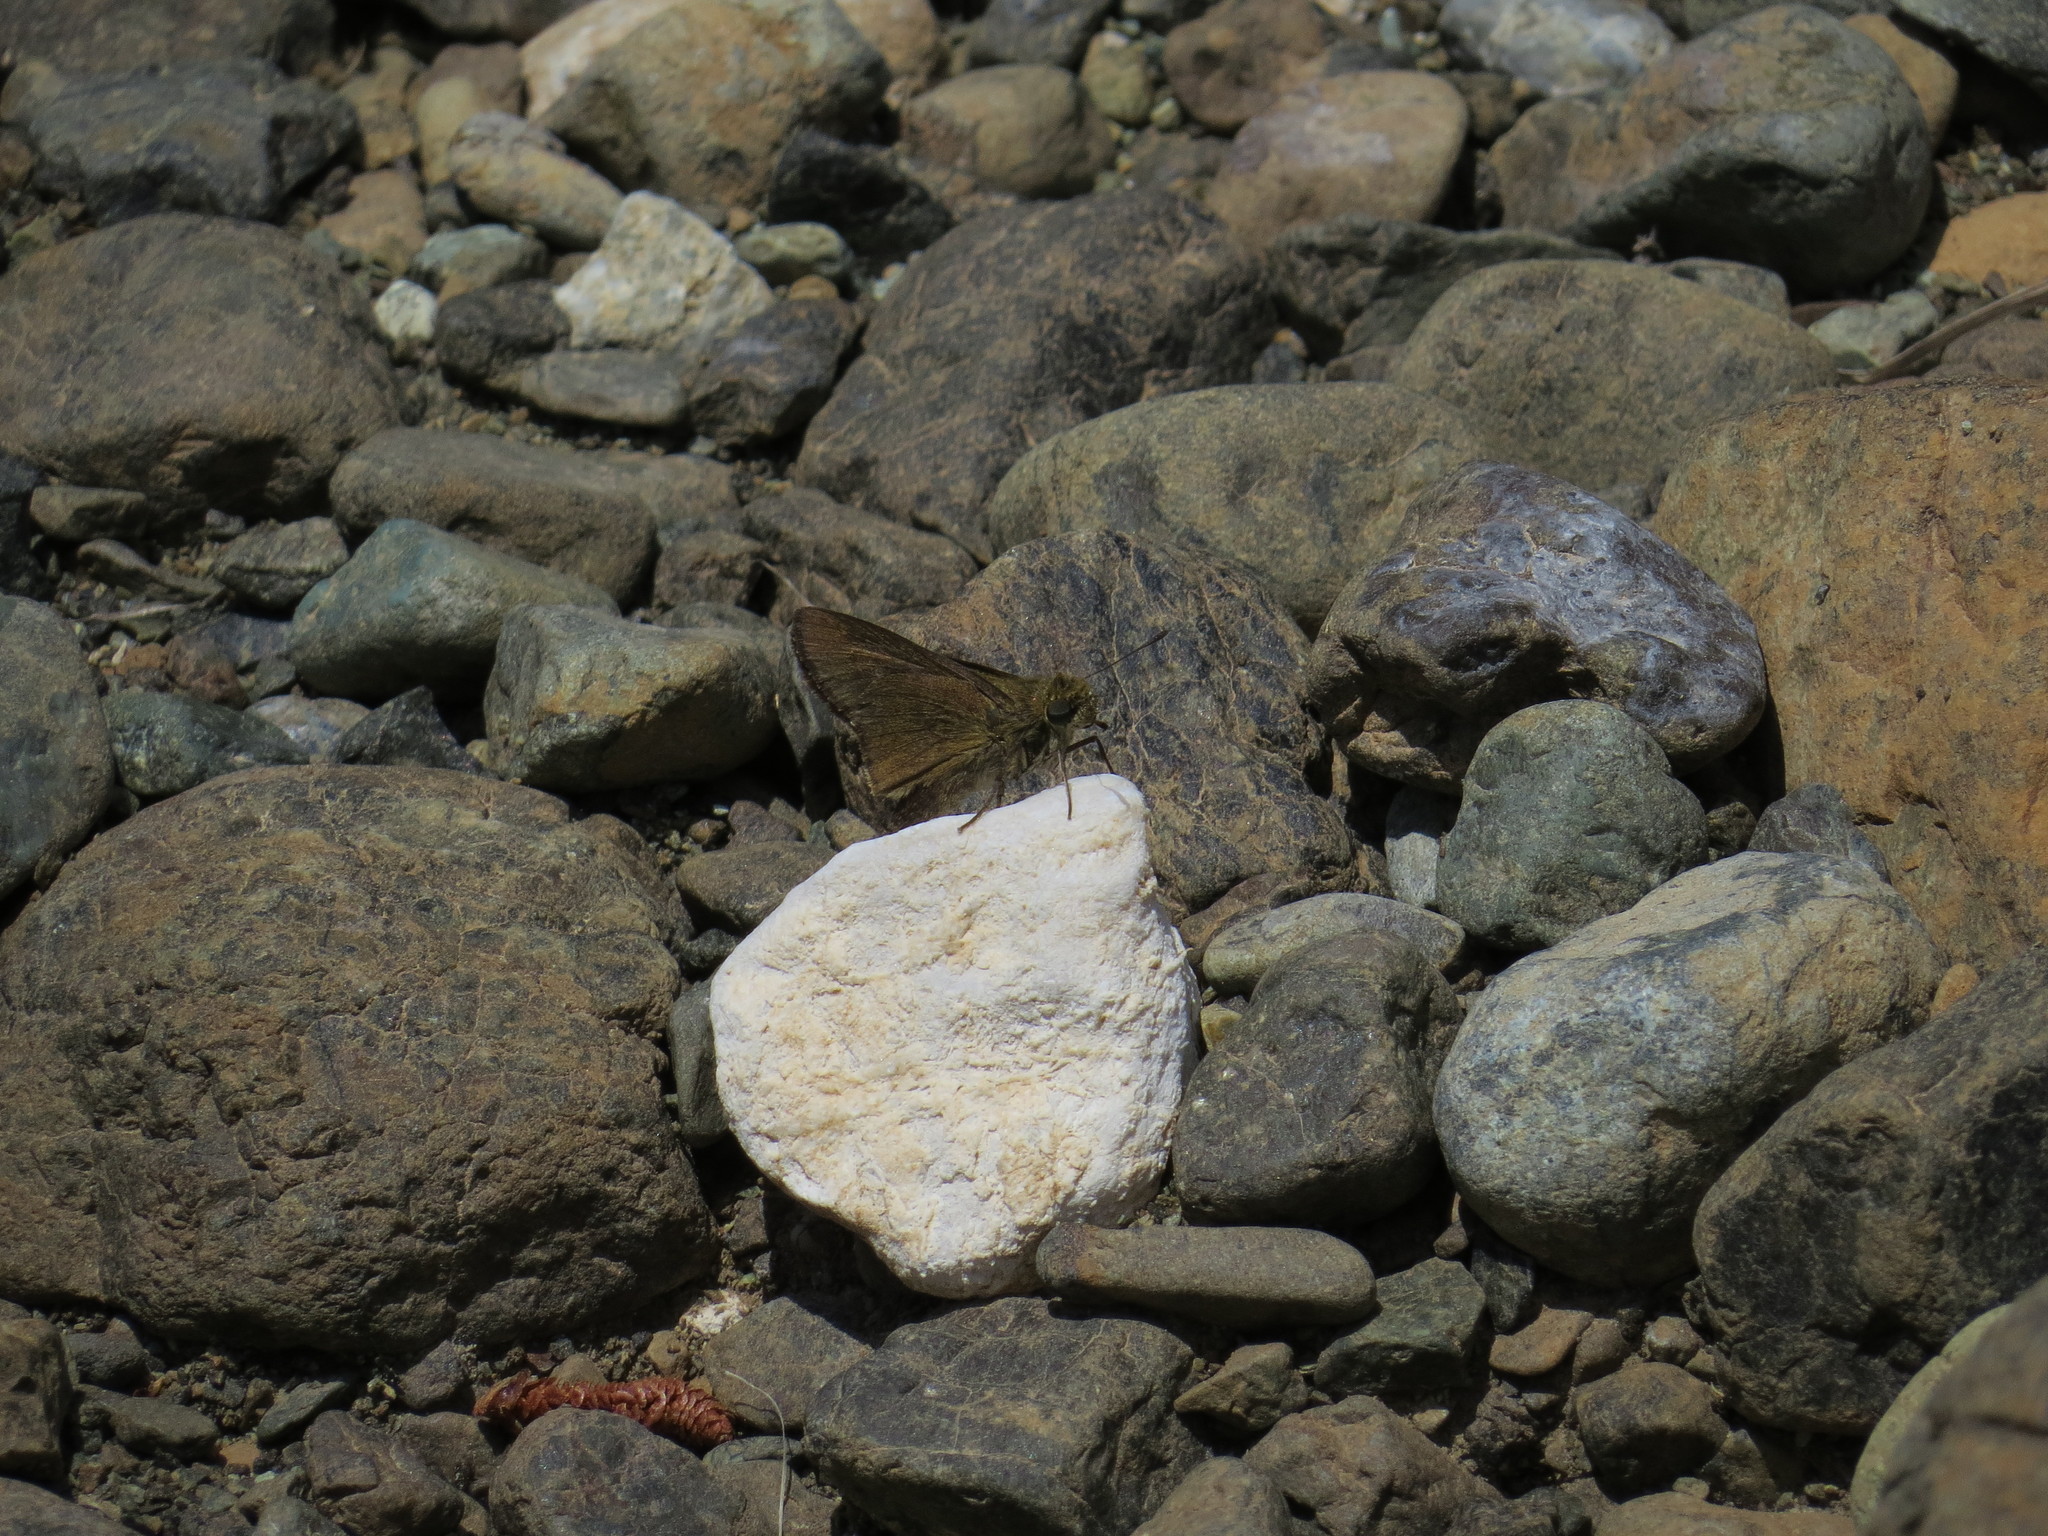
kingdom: Animalia
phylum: Arthropoda
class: Insecta
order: Lepidoptera
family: Hesperiidae
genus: Pelopidas
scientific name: Pelopidas thrax
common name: Millet skipper
